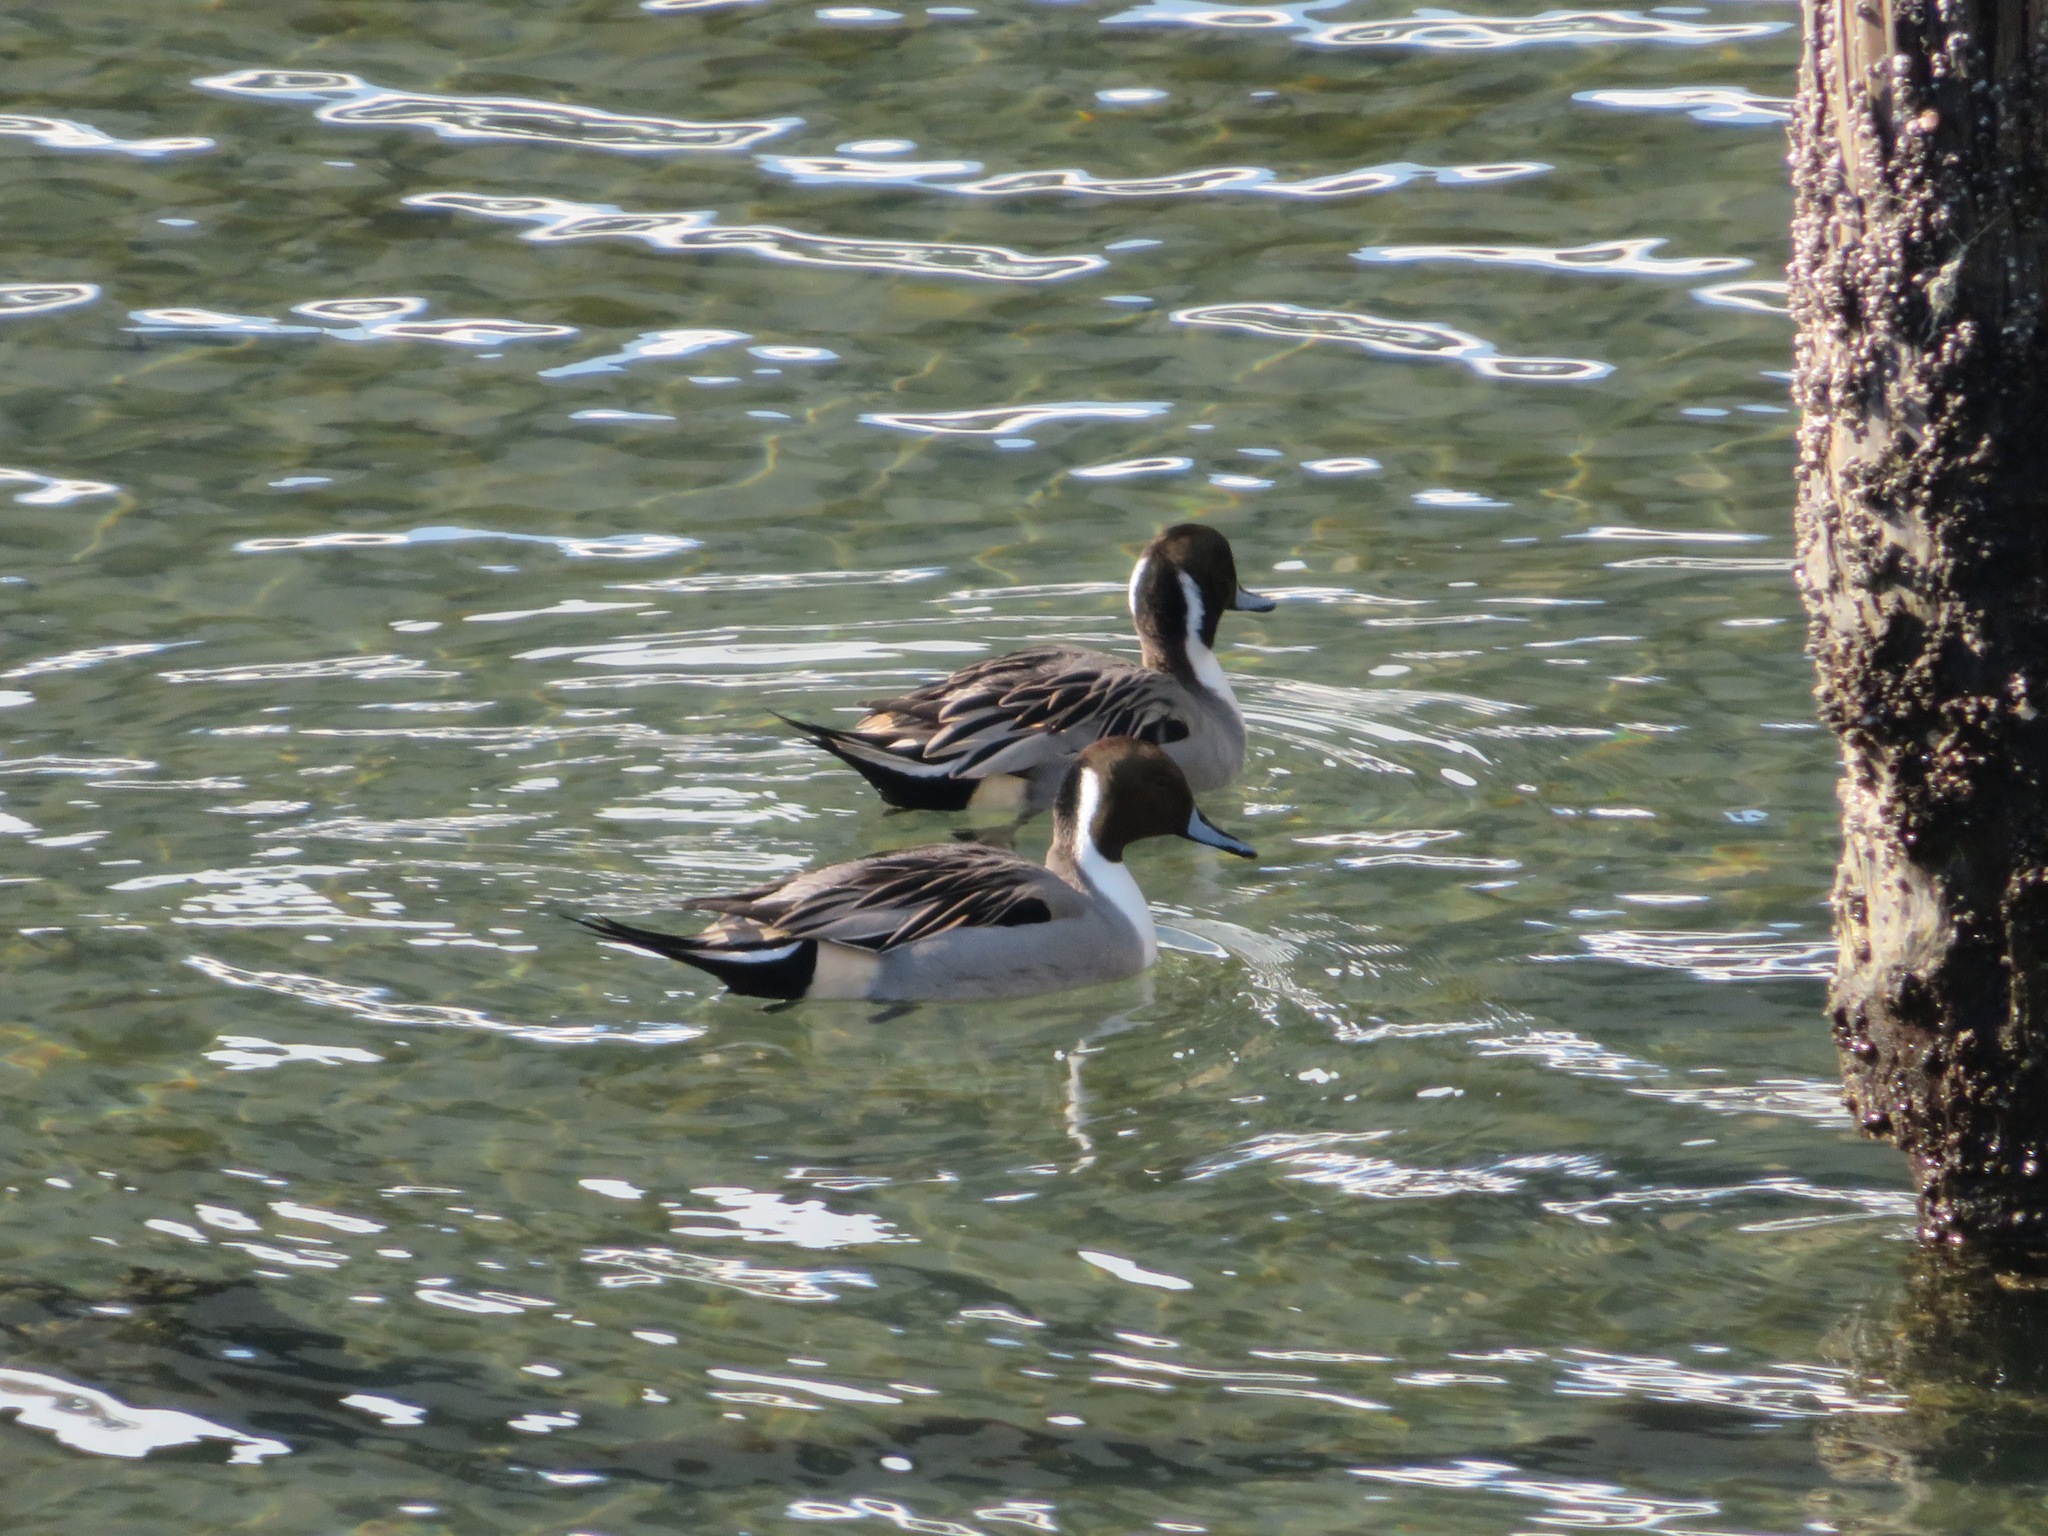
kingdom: Animalia
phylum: Chordata
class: Aves
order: Anseriformes
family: Anatidae
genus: Anas
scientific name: Anas acuta
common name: Northern pintail
